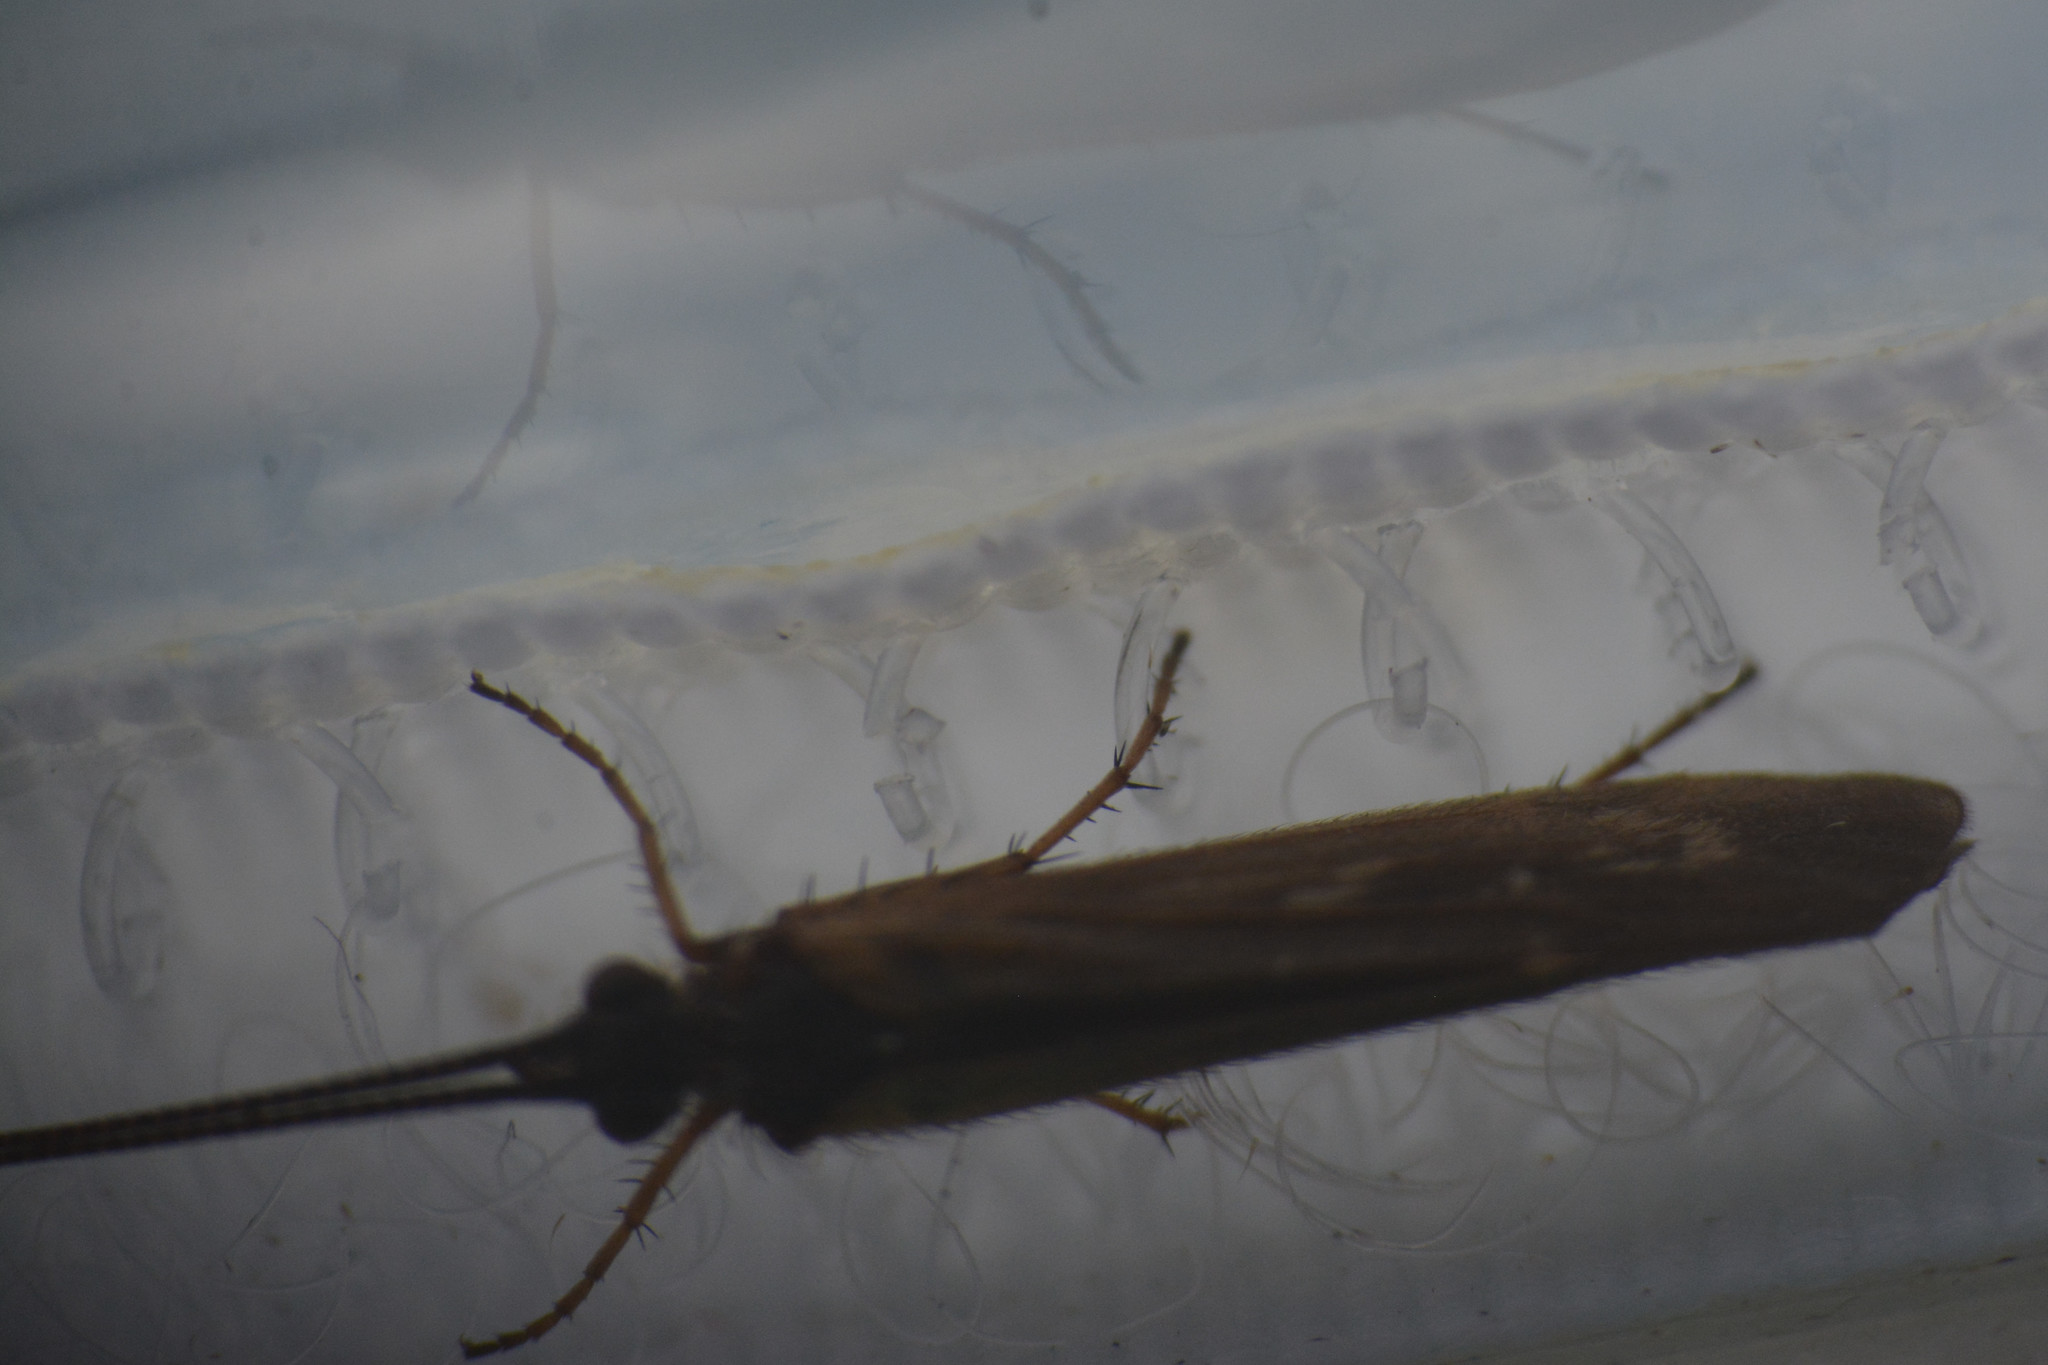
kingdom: Animalia
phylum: Arthropoda
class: Insecta
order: Trichoptera
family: Limnephilidae
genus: Limnephilus
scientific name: Limnephilus auricula
